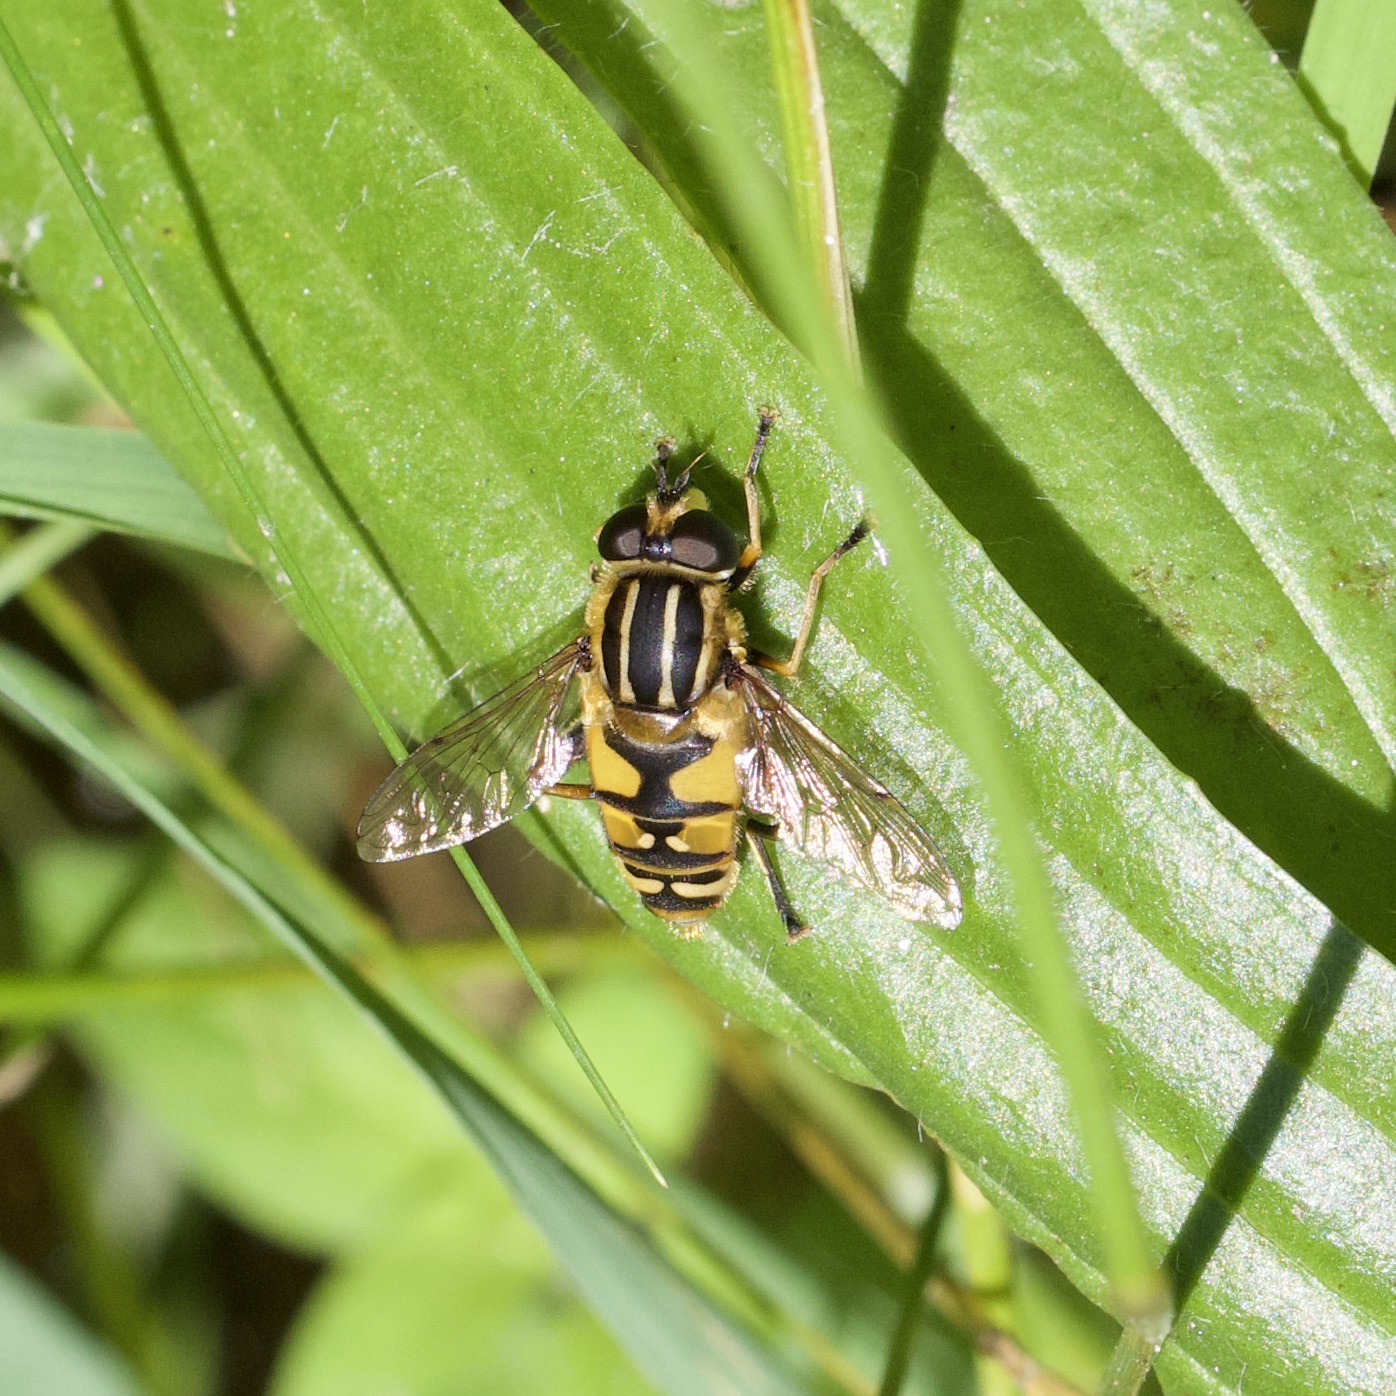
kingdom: Animalia
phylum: Arthropoda
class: Insecta
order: Diptera
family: Syrphidae
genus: Helophilus
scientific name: Helophilus pendulus
